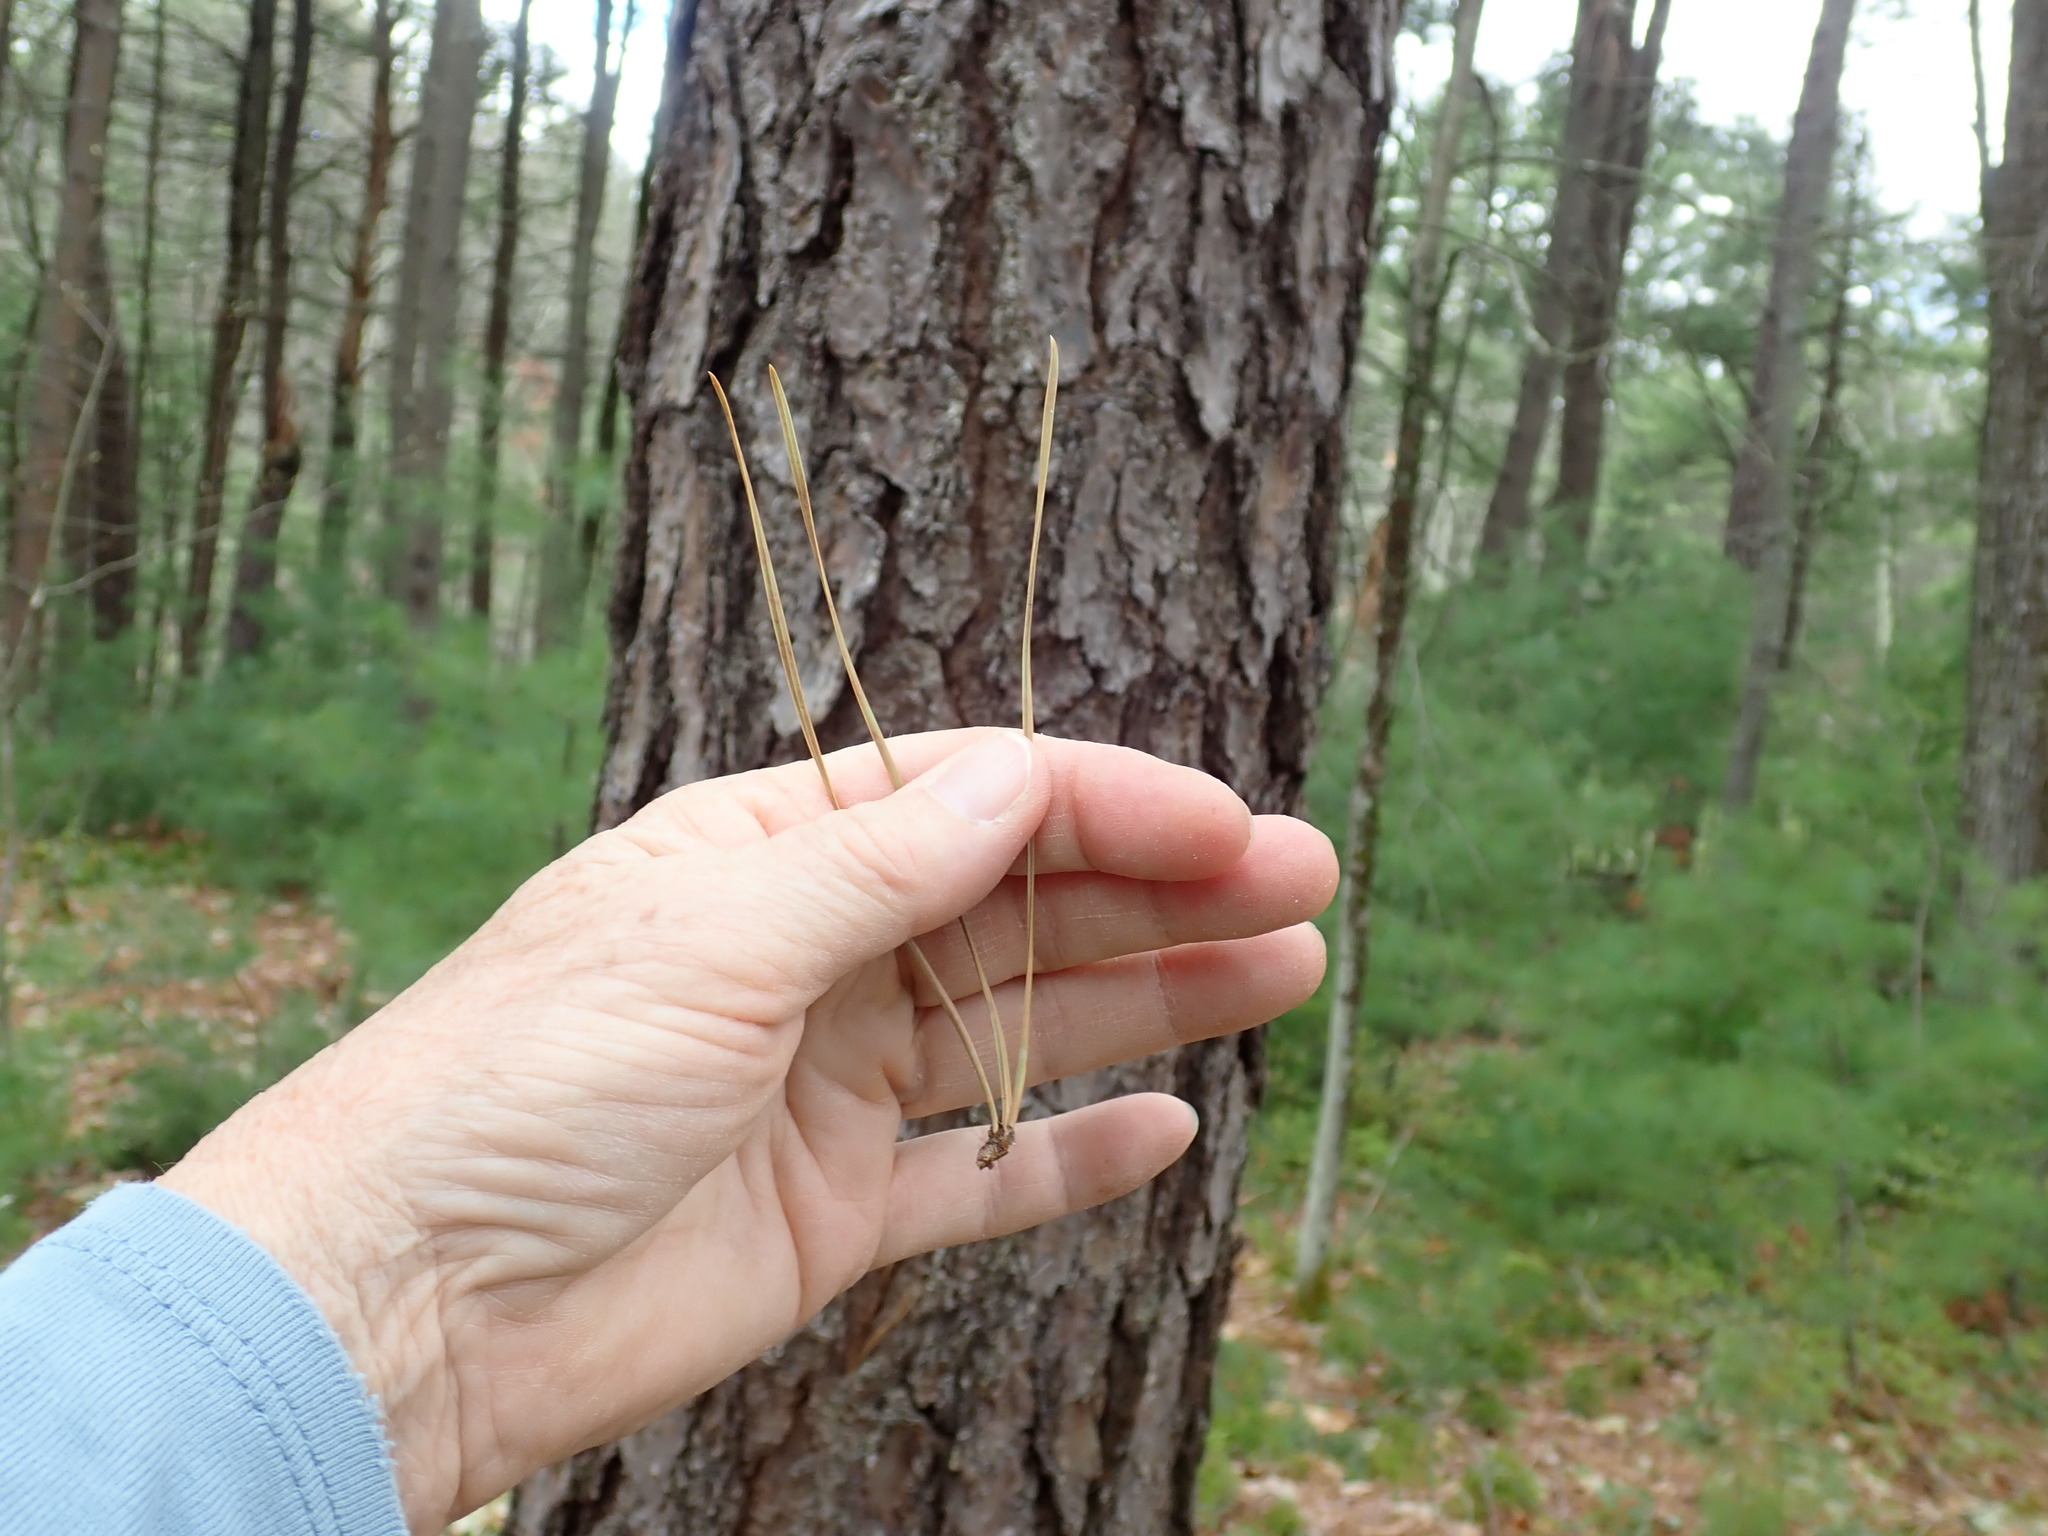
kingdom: Plantae
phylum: Tracheophyta
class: Pinopsida
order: Pinales
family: Pinaceae
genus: Pinus
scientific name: Pinus rigida
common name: Pitch pine
